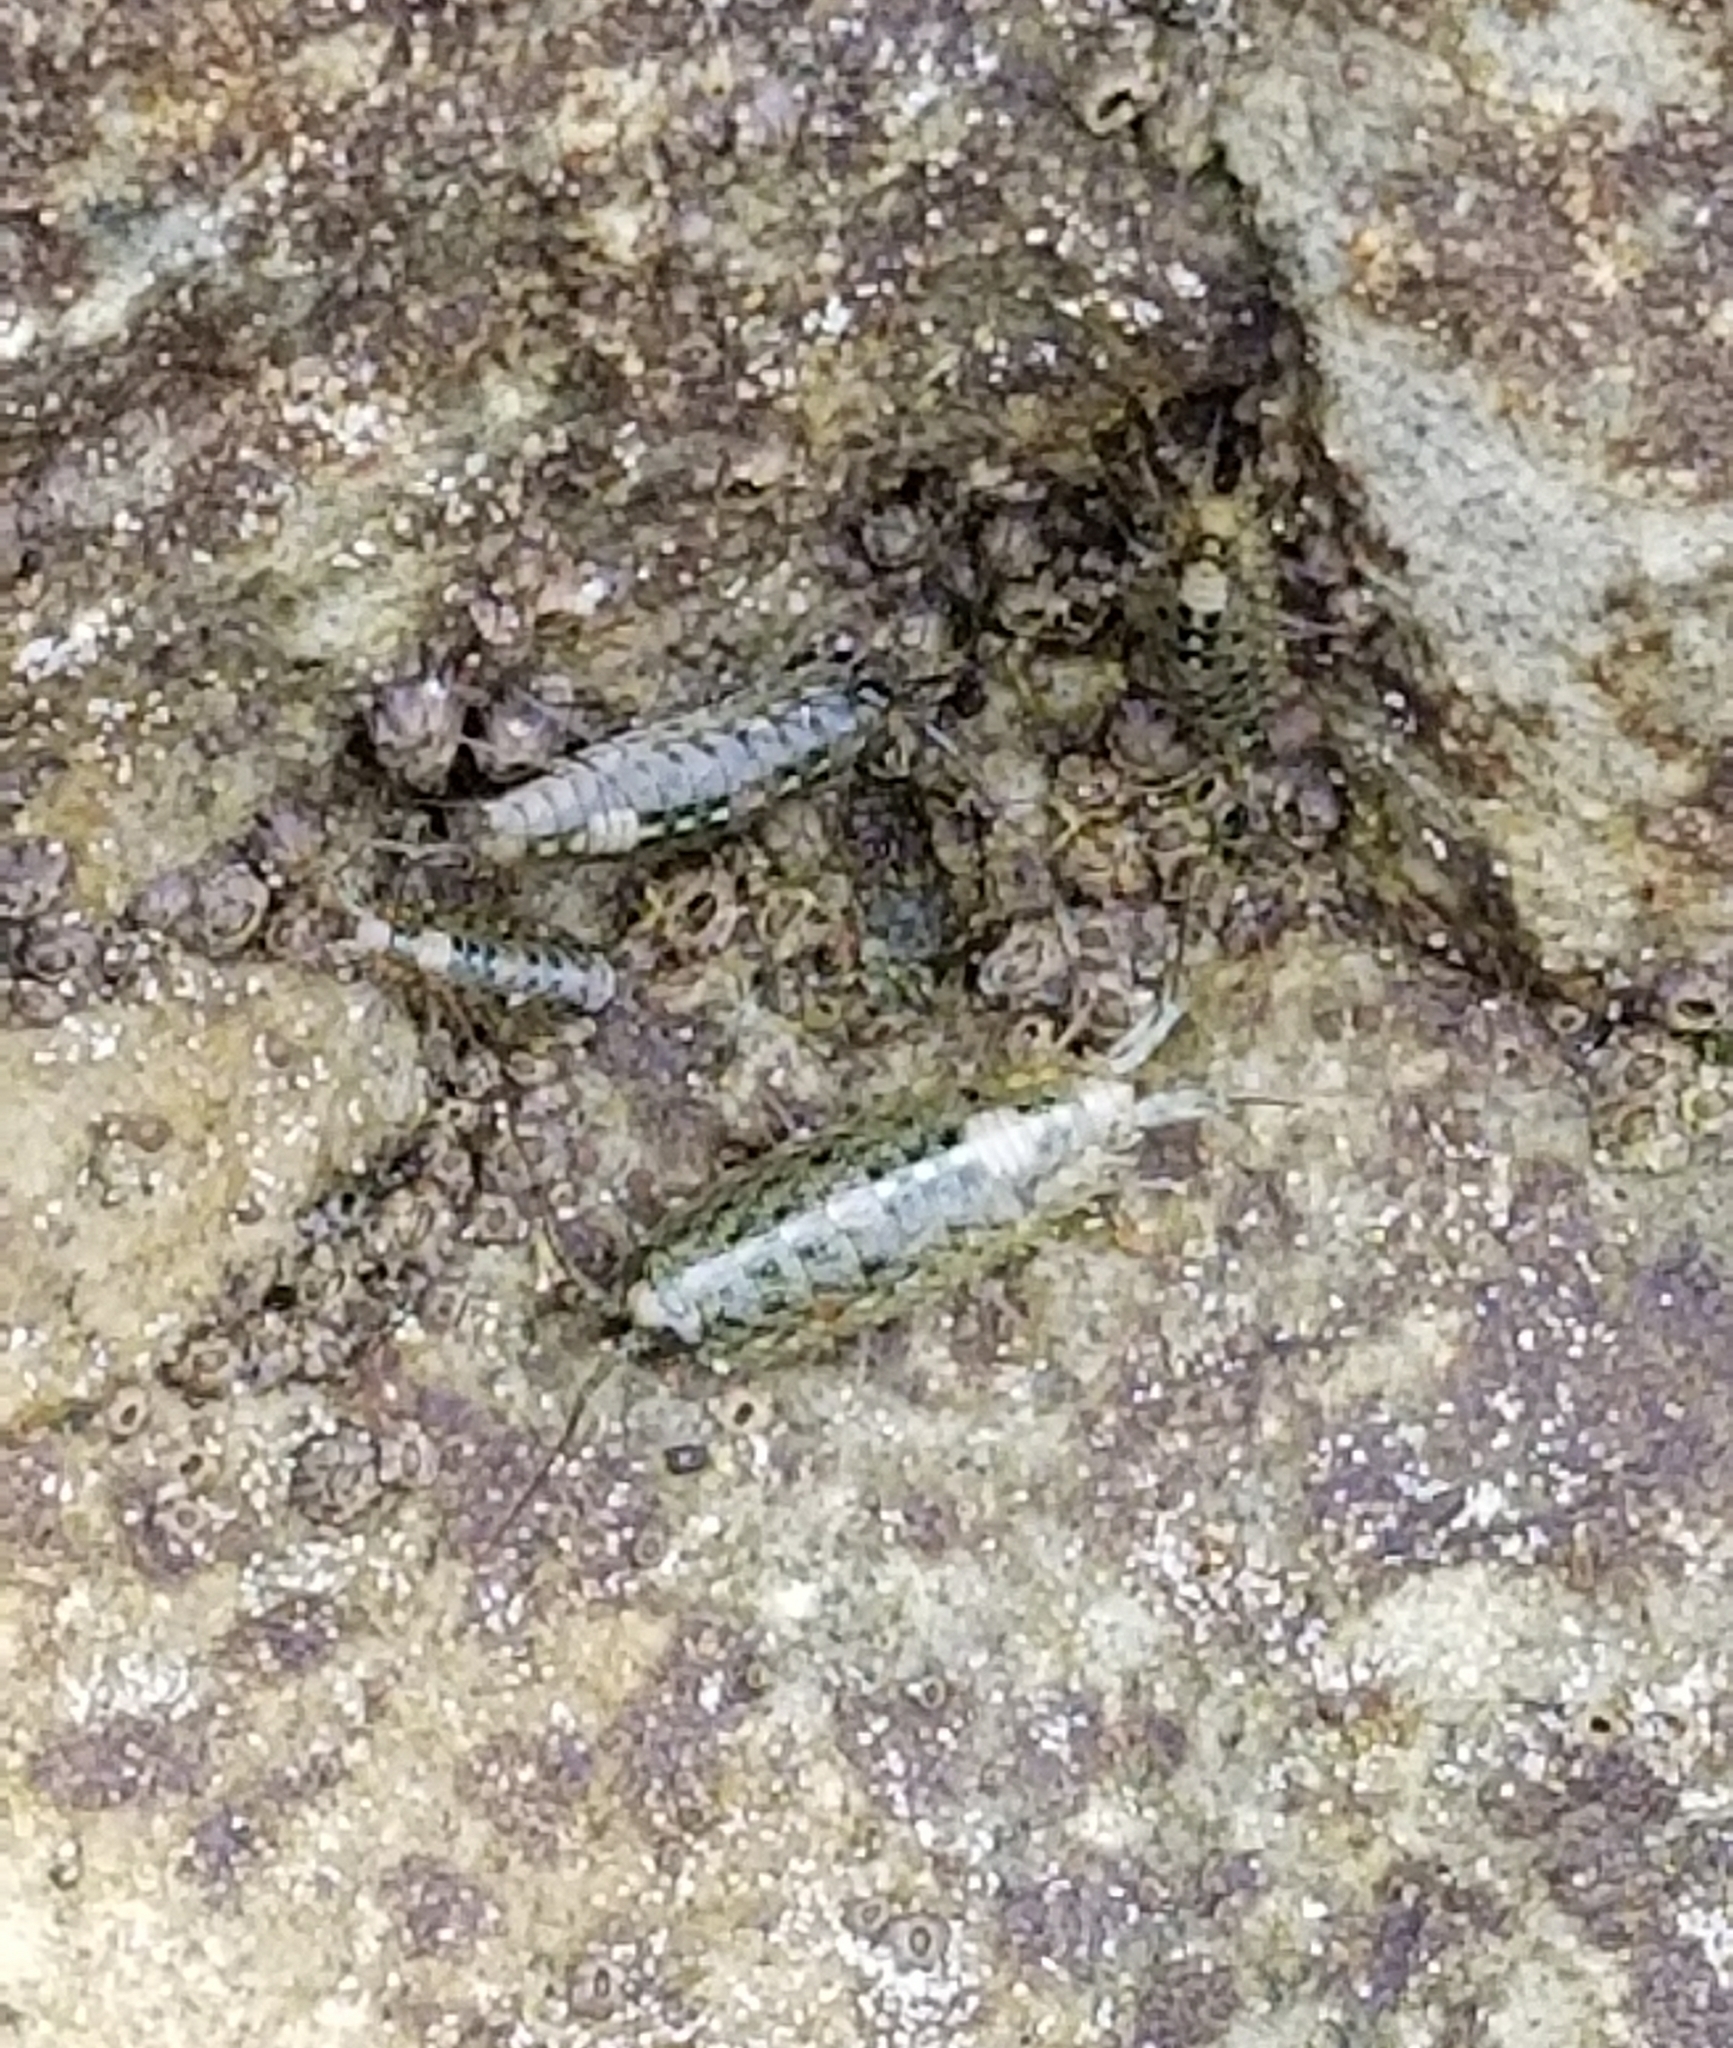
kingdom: Animalia
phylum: Arthropoda
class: Malacostraca
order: Isopoda
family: Ligiidae
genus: Ligia
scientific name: Ligia occidentalis
